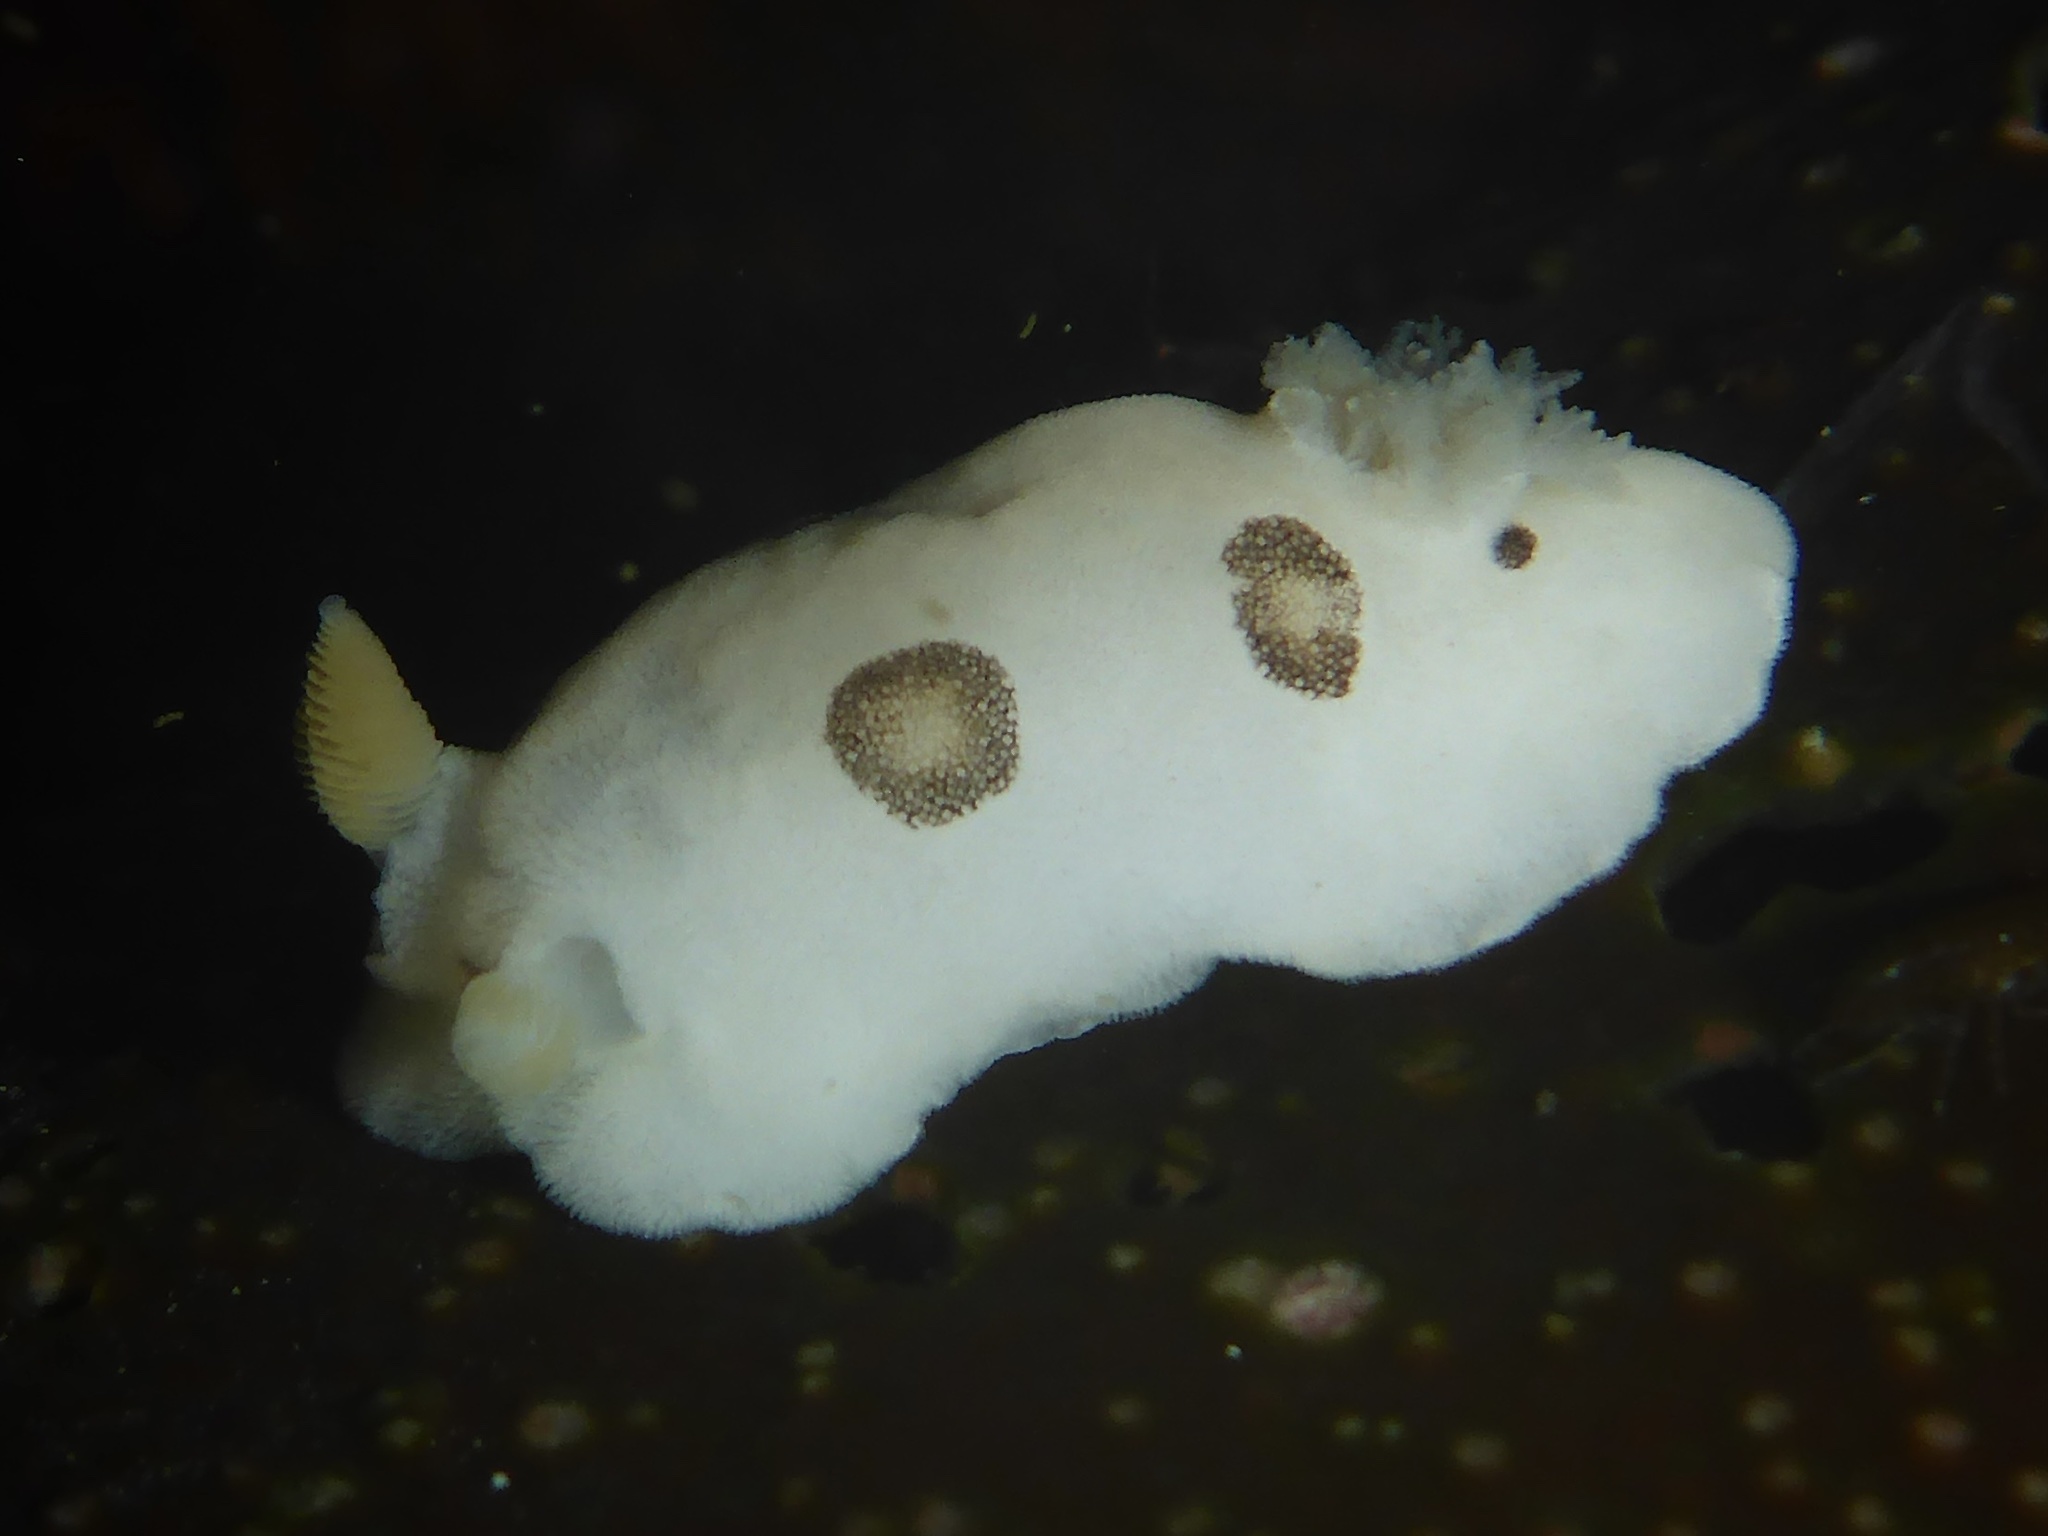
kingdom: Animalia
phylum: Mollusca
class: Gastropoda
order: Nudibranchia
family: Discodorididae
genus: Diaulula
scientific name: Diaulula sandiegensis
